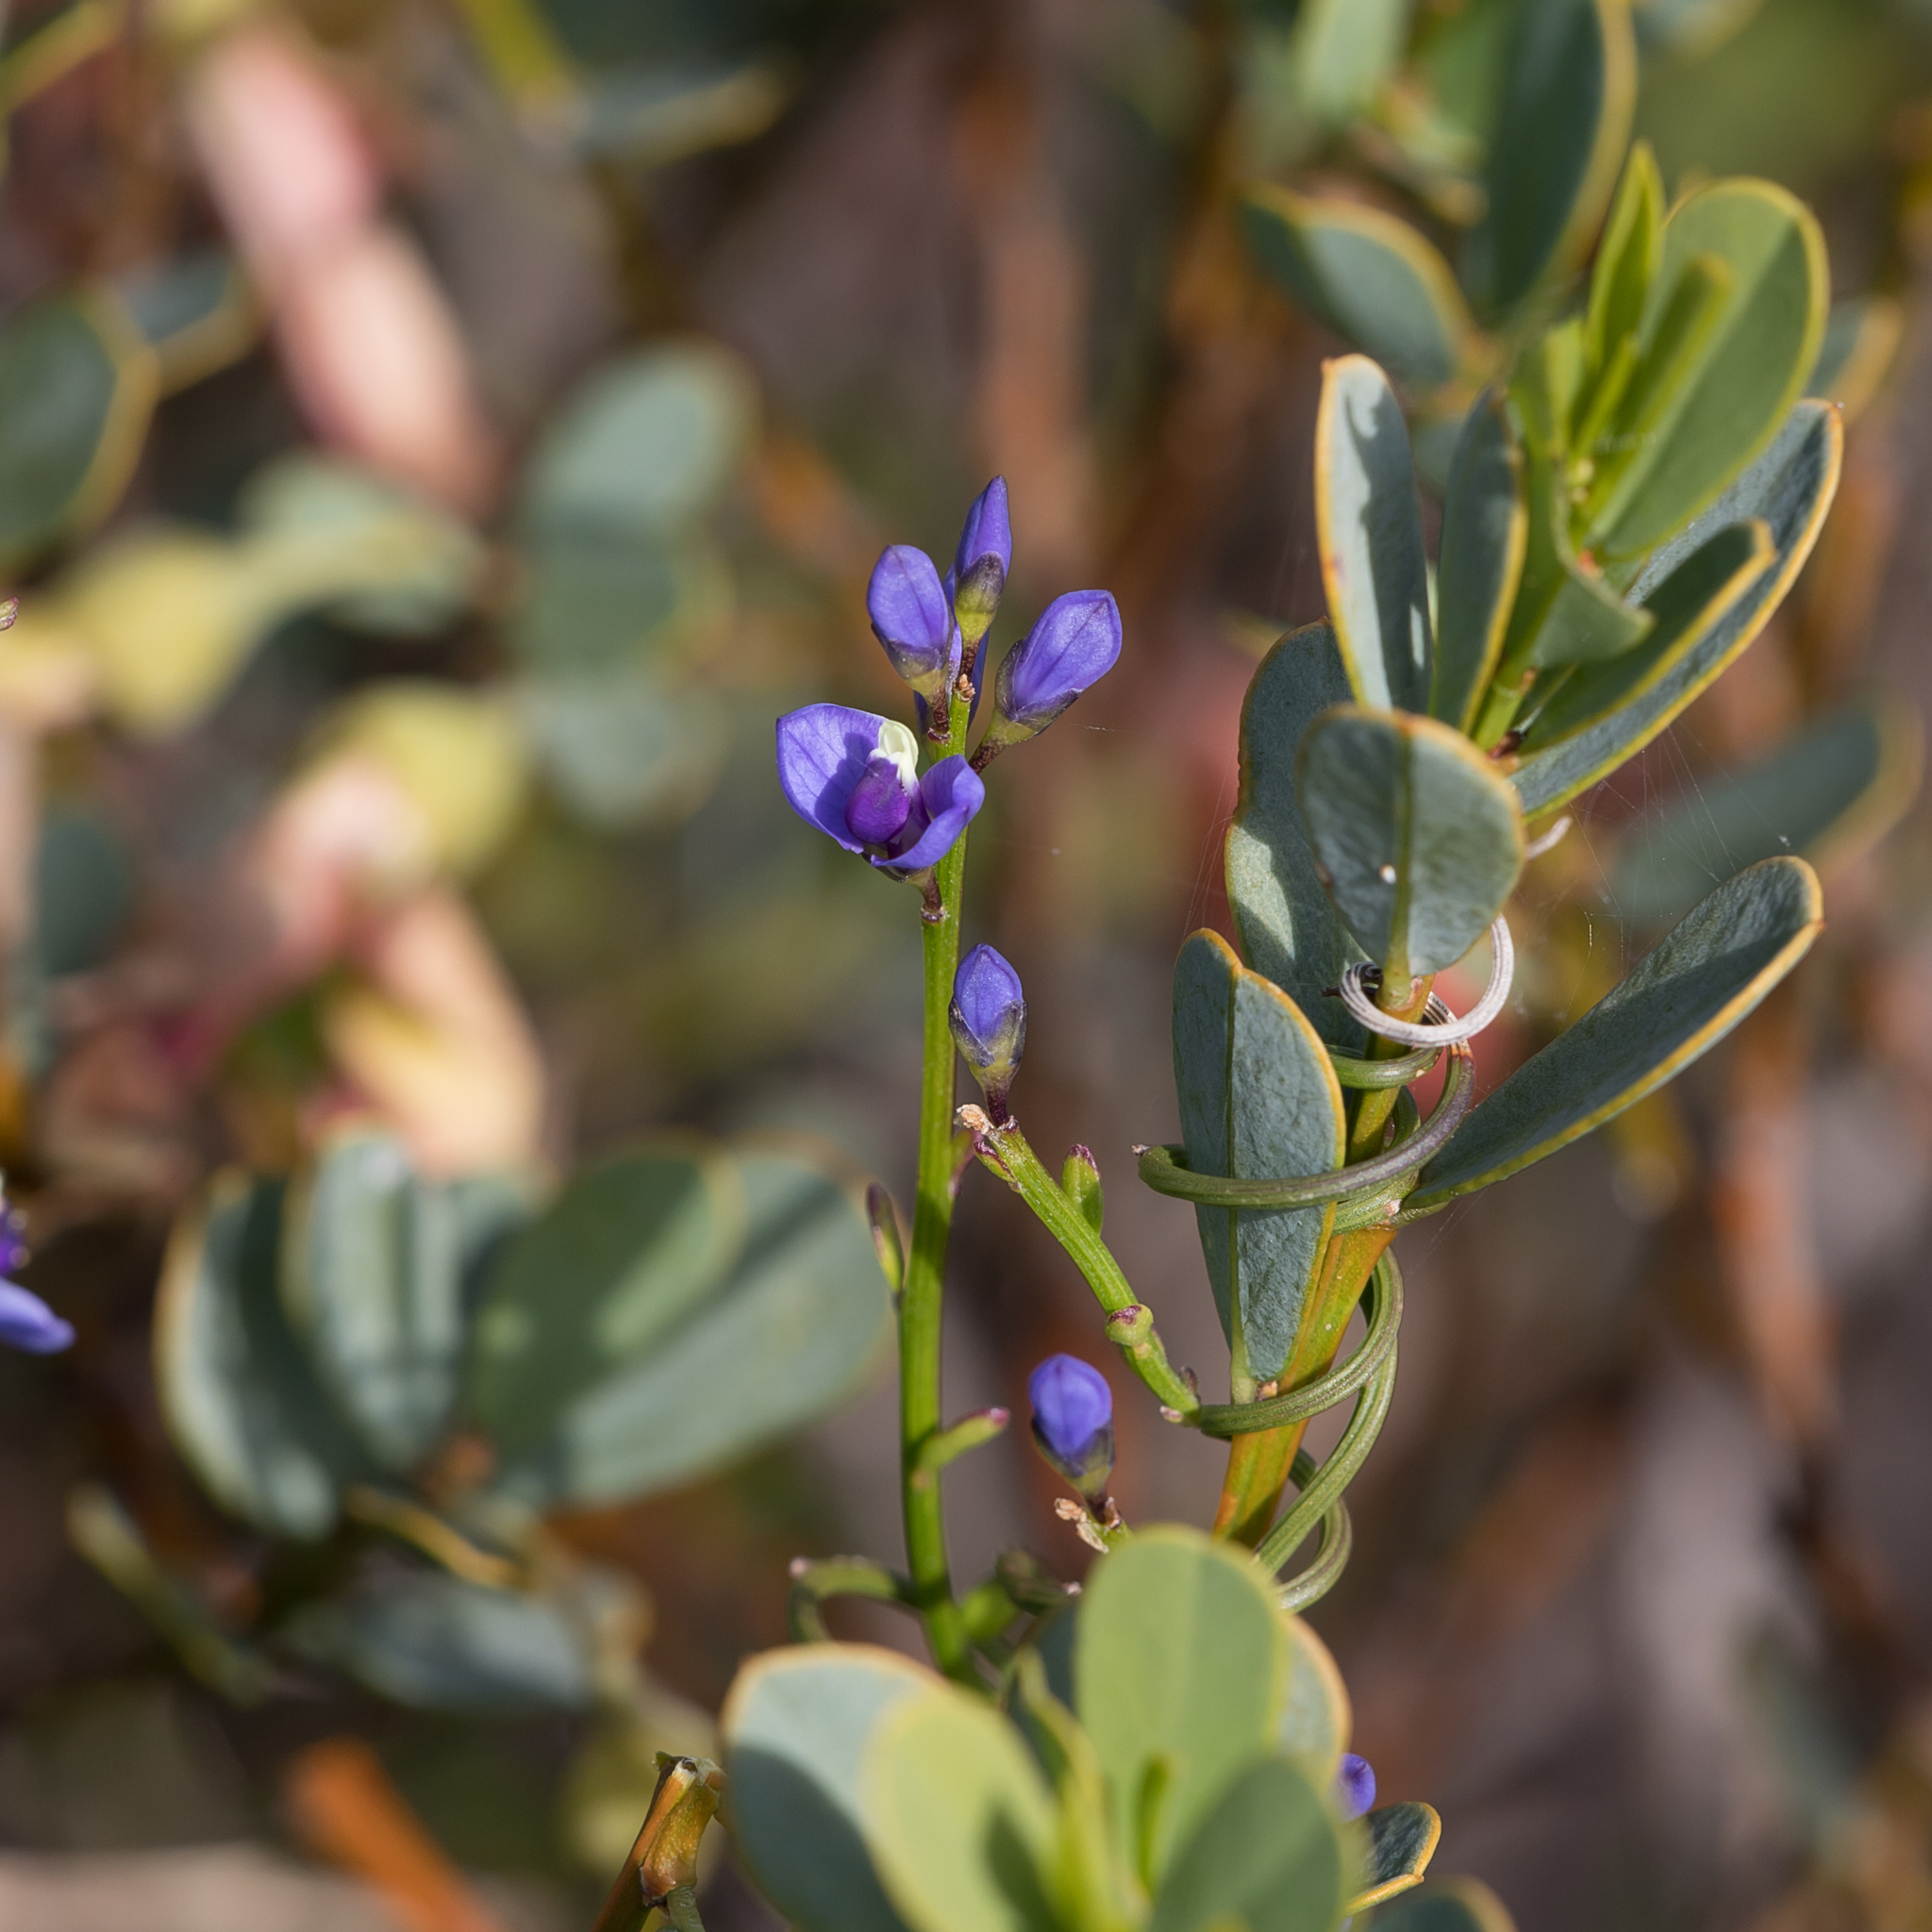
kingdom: Plantae
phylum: Tracheophyta
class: Magnoliopsida
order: Fabales
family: Polygalaceae
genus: Comesperma
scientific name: Comesperma volubile
